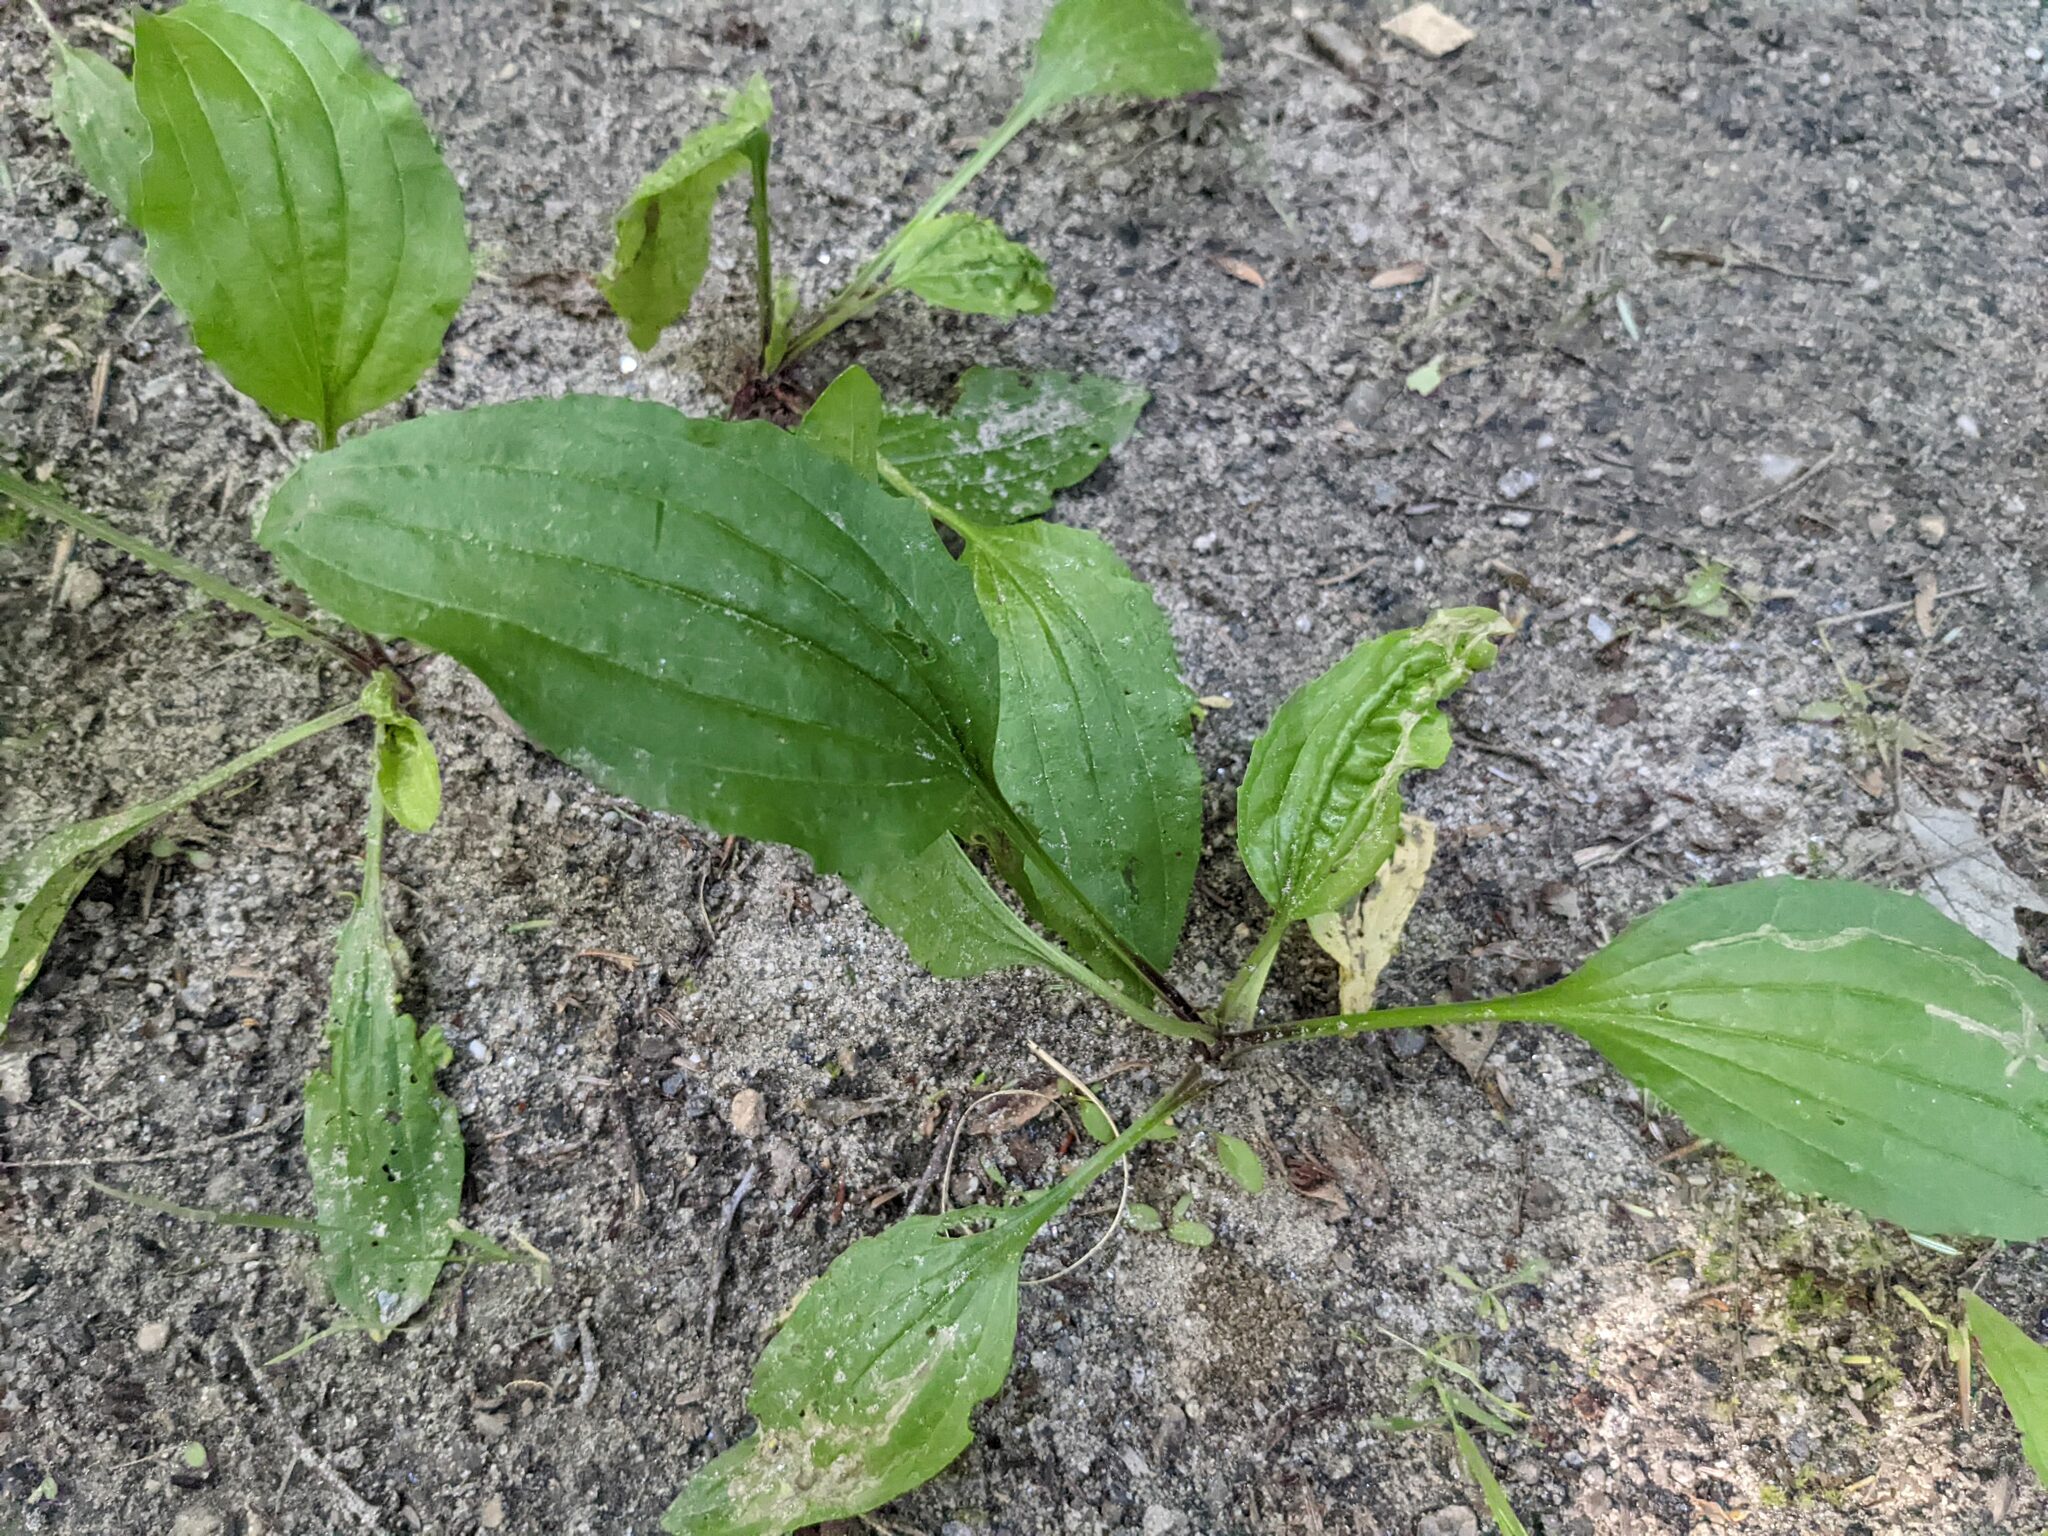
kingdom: Plantae
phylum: Tracheophyta
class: Magnoliopsida
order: Lamiales
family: Plantaginaceae
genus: Plantago
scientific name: Plantago rugelii
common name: American plantain
